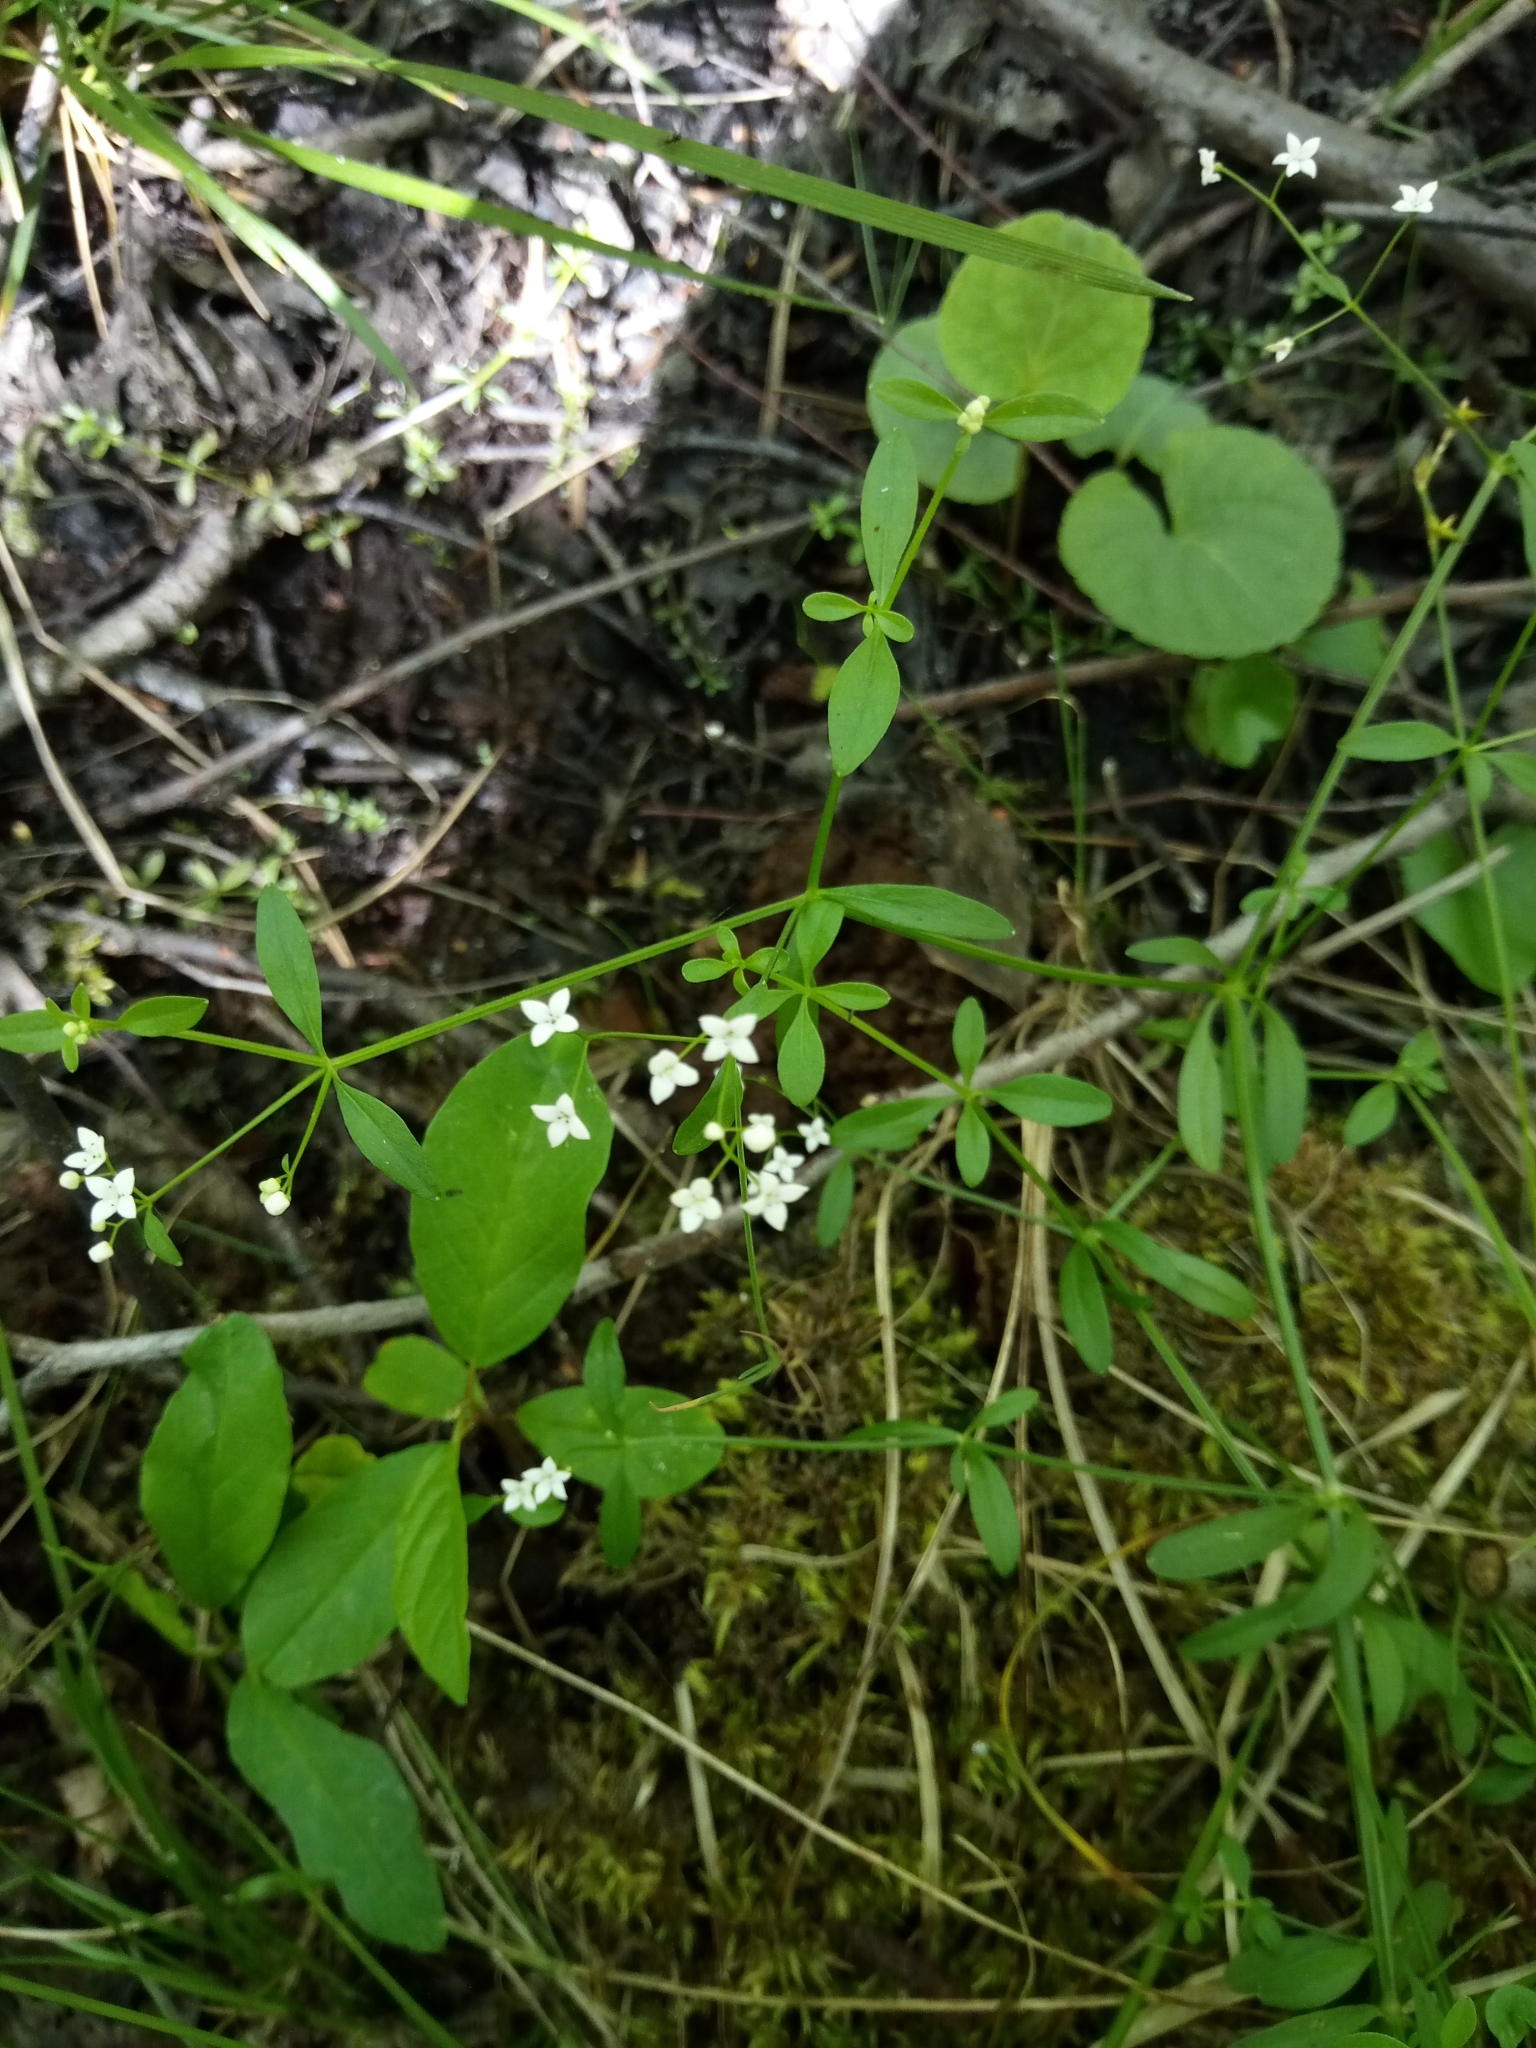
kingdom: Plantae
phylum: Tracheophyta
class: Magnoliopsida
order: Gentianales
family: Rubiaceae
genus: Galium
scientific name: Galium palustre
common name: Common marsh-bedstraw
